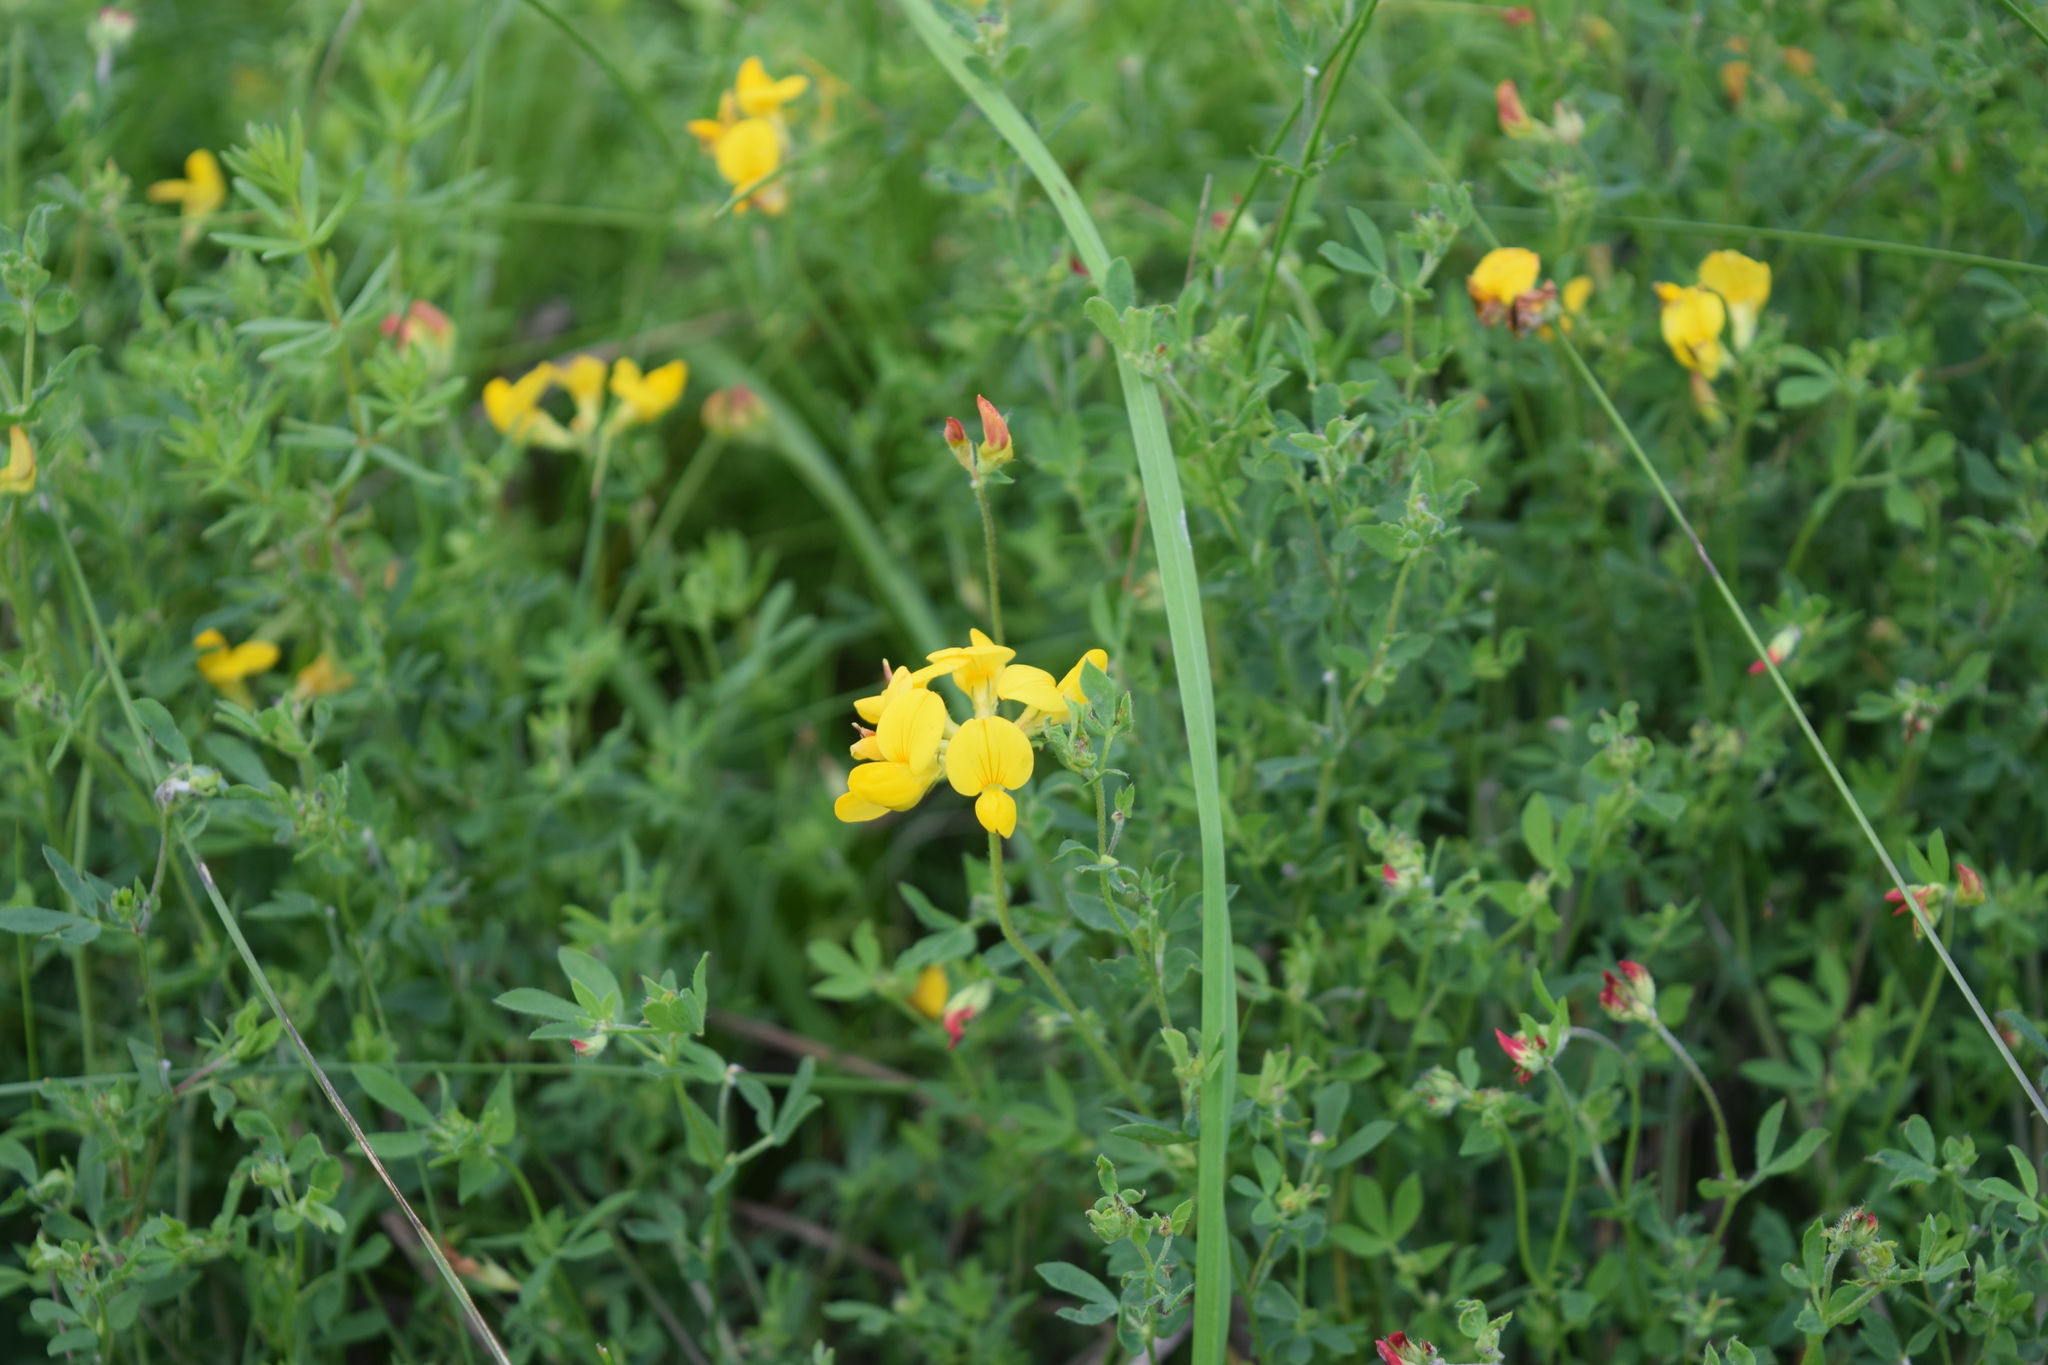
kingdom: Plantae
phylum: Tracheophyta
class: Magnoliopsida
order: Fabales
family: Fabaceae
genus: Lotus
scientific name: Lotus corniculatus
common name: Common bird's-foot-trefoil
